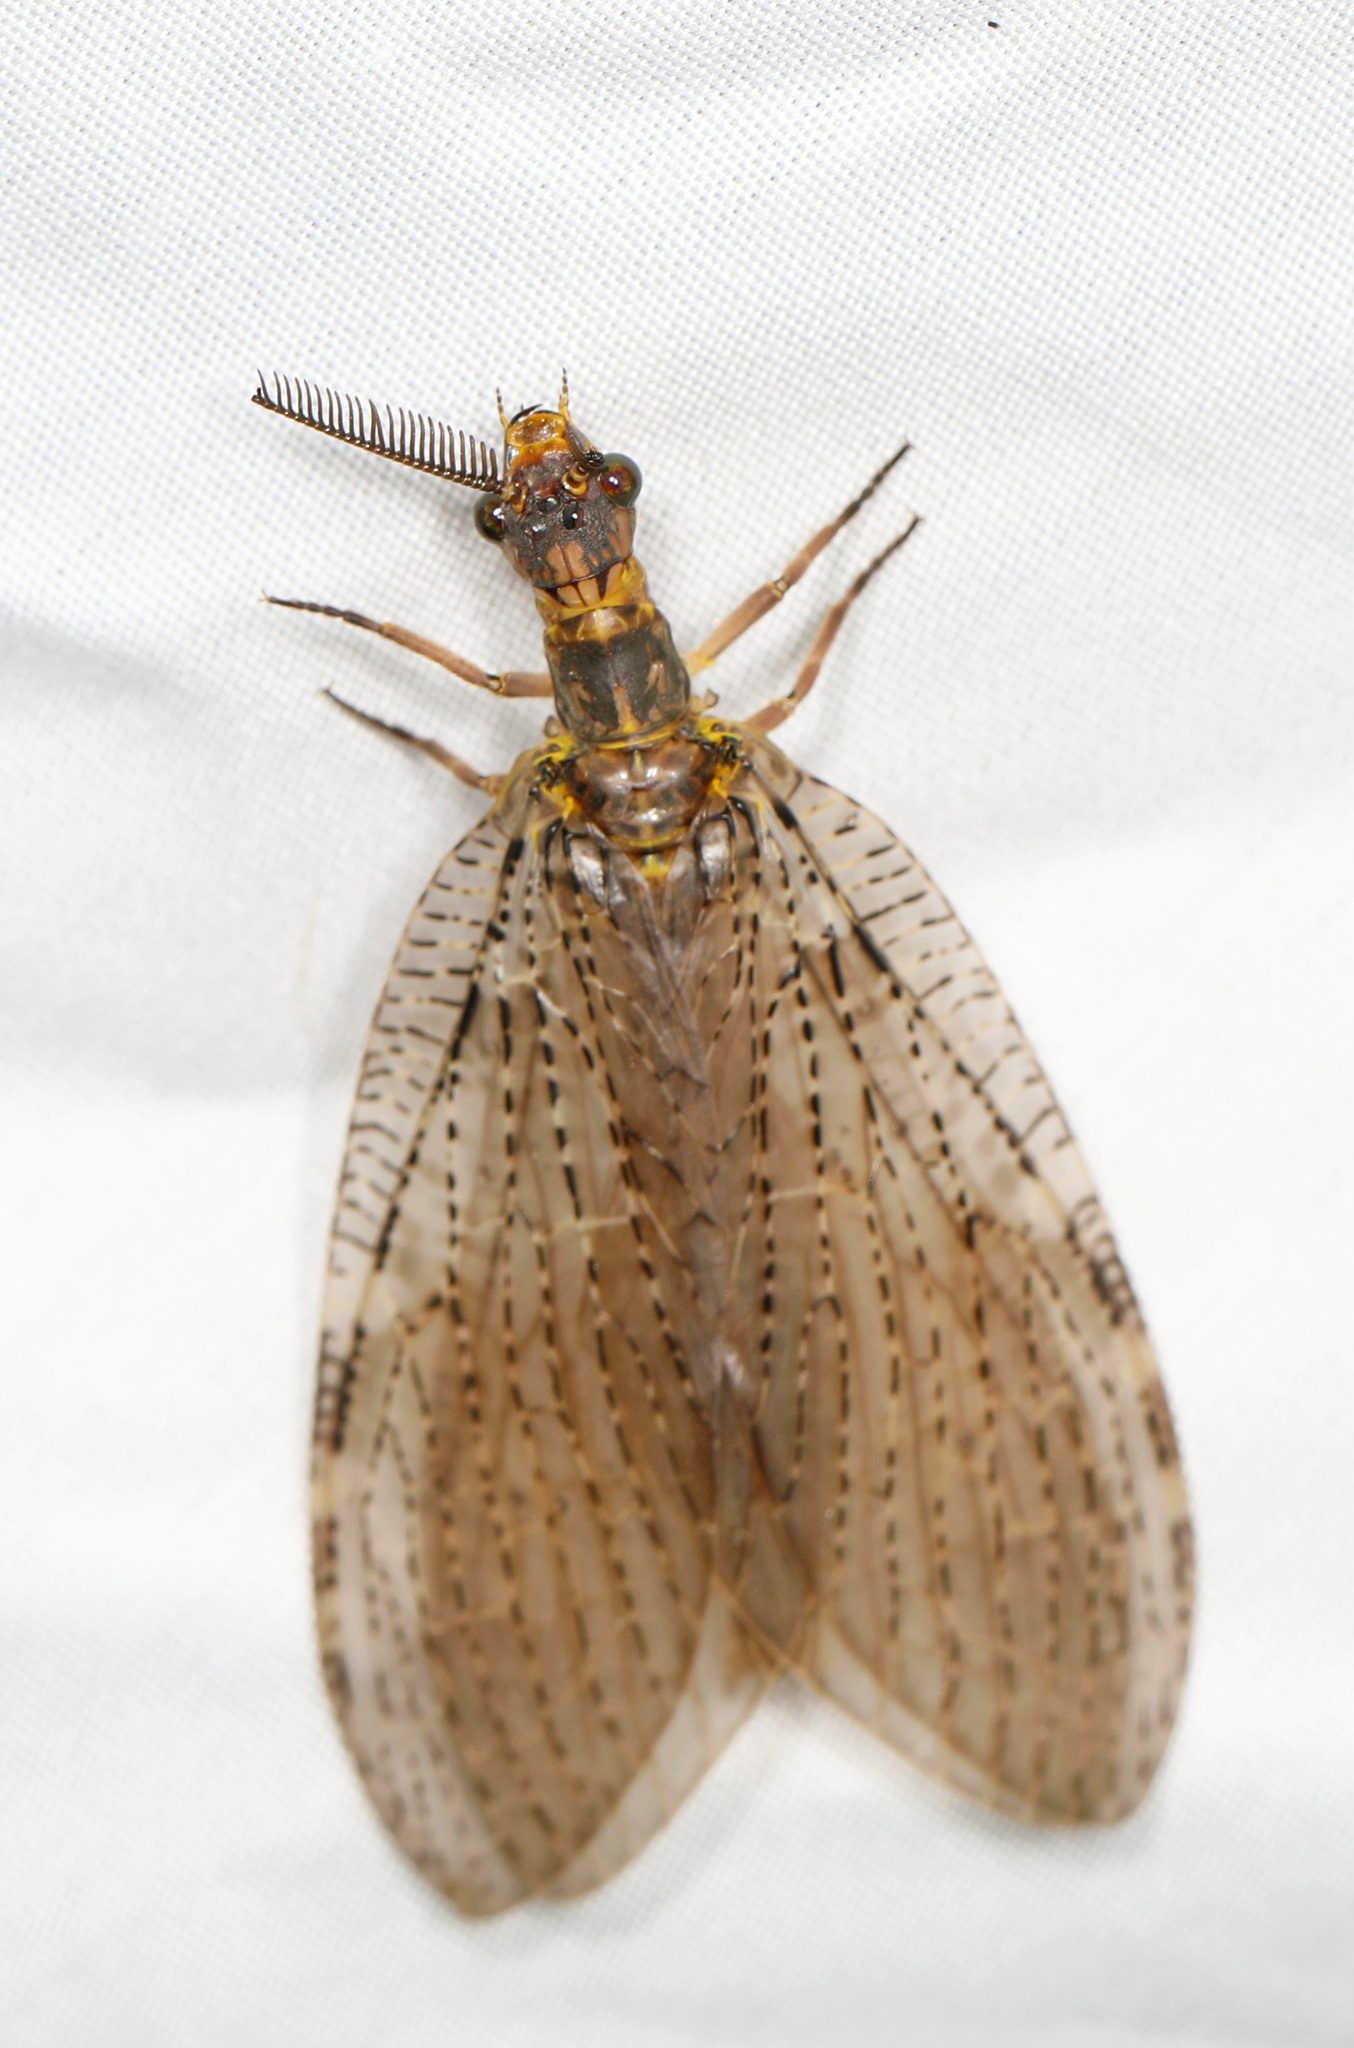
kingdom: Animalia
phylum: Arthropoda
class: Insecta
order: Megaloptera
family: Corydalidae
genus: Chauliodes
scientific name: Chauliodes pectinicornis
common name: Summer fishfly
